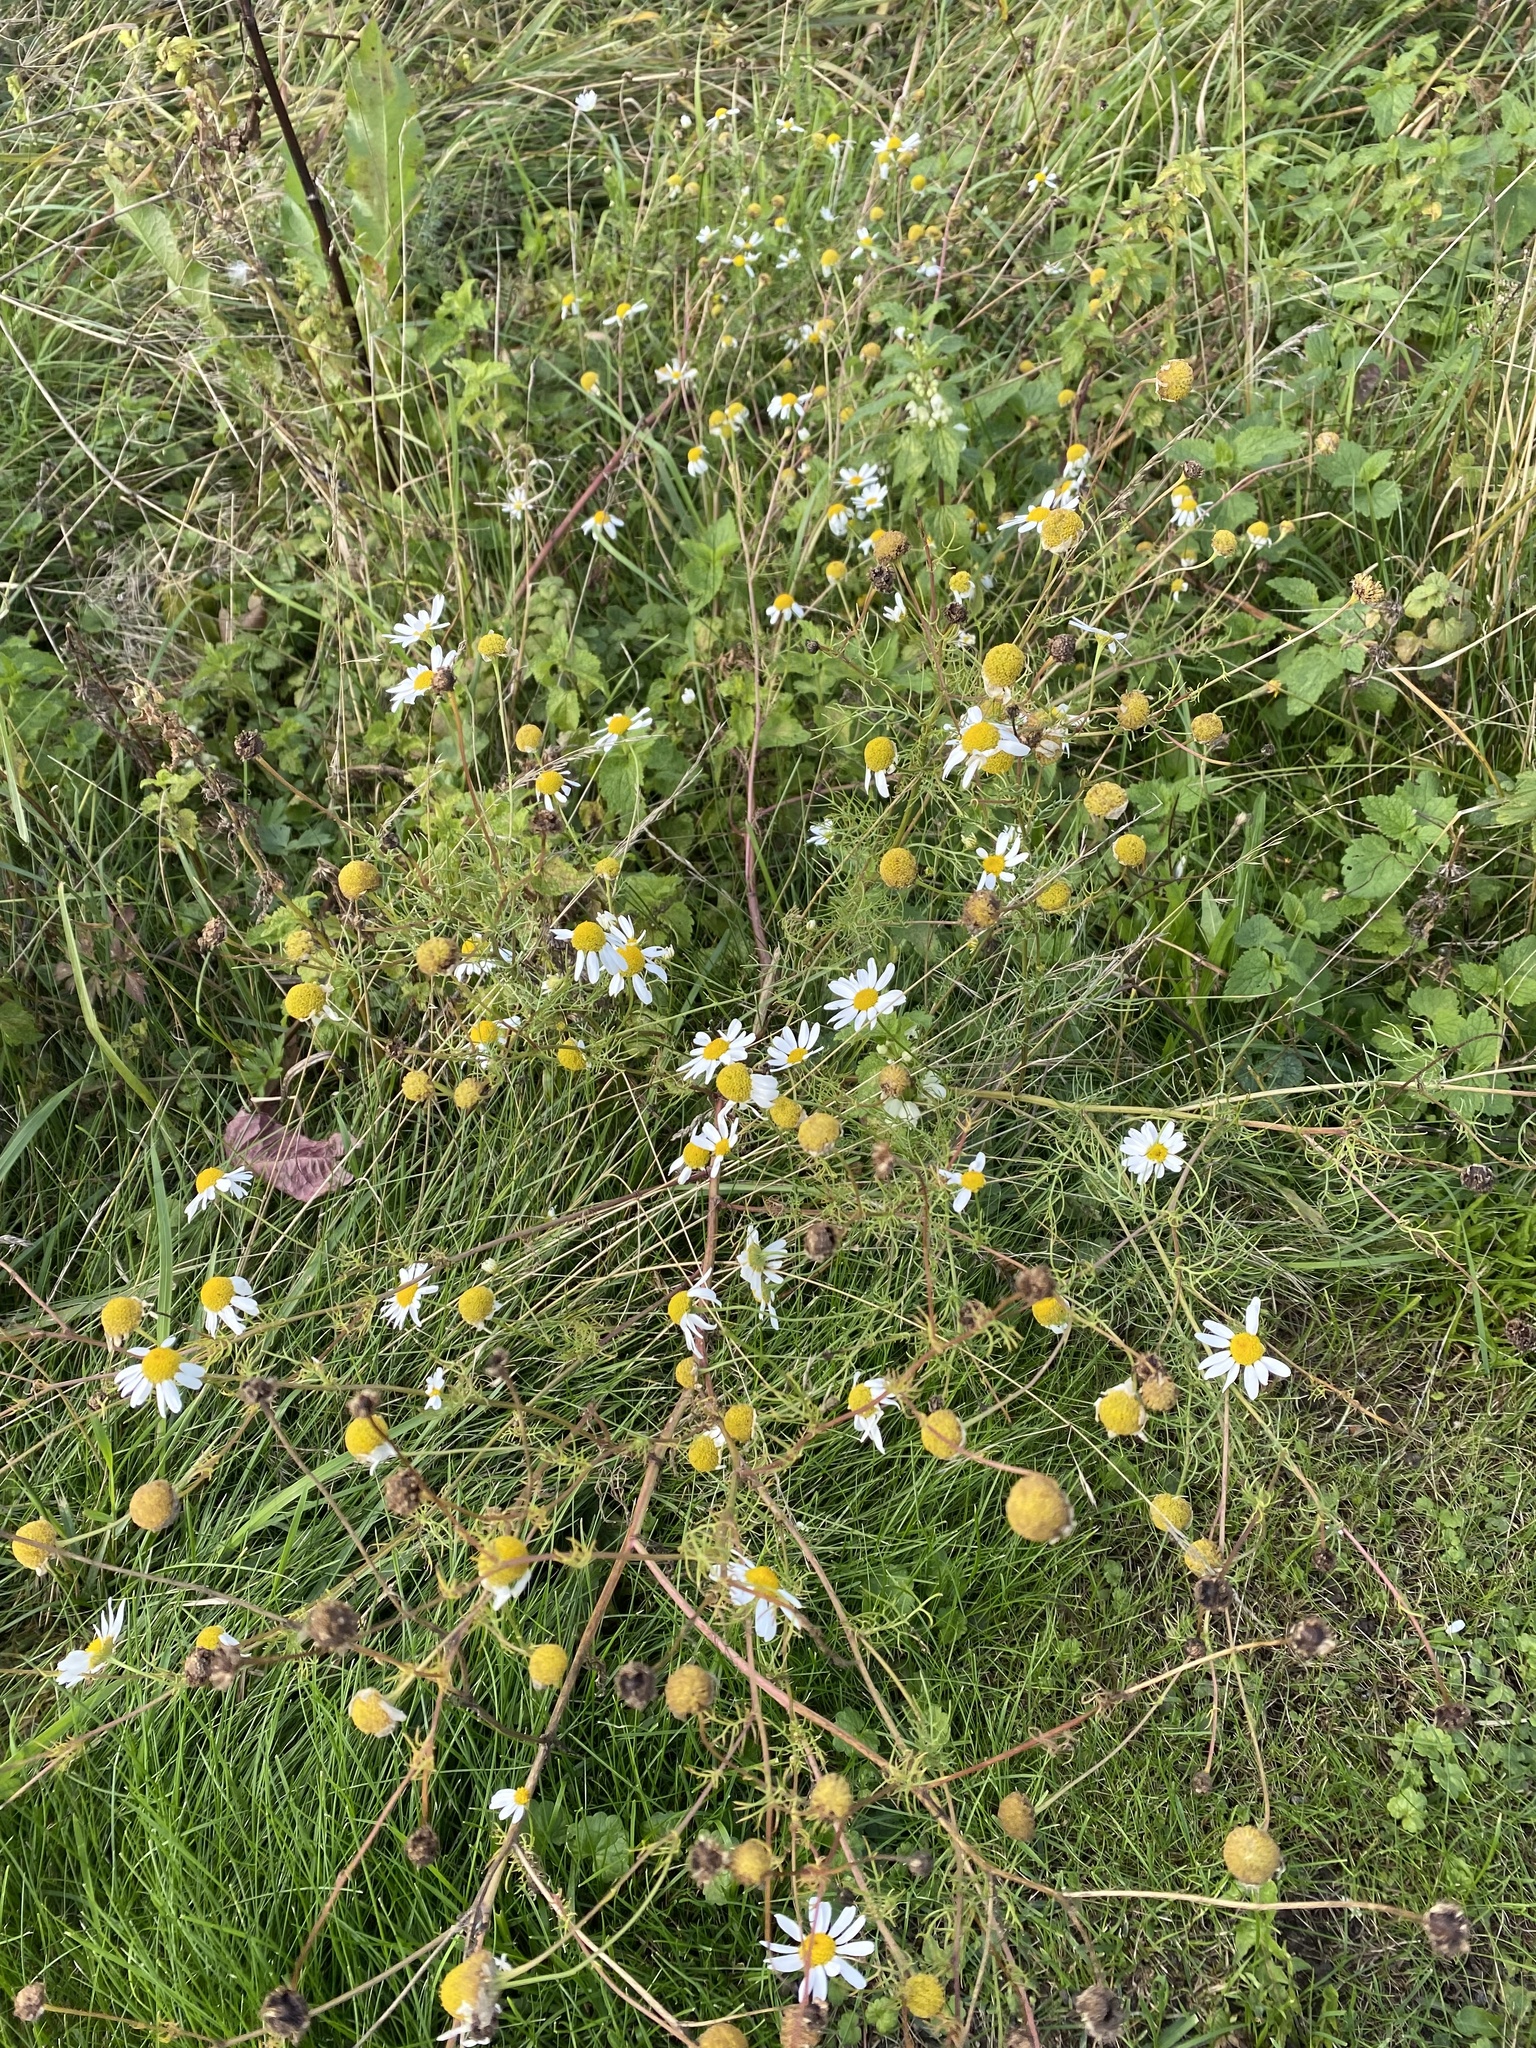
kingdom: Plantae
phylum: Tracheophyta
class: Magnoliopsida
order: Asterales
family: Asteraceae
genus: Tripleurospermum
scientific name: Tripleurospermum inodorum
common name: Scentless mayweed
